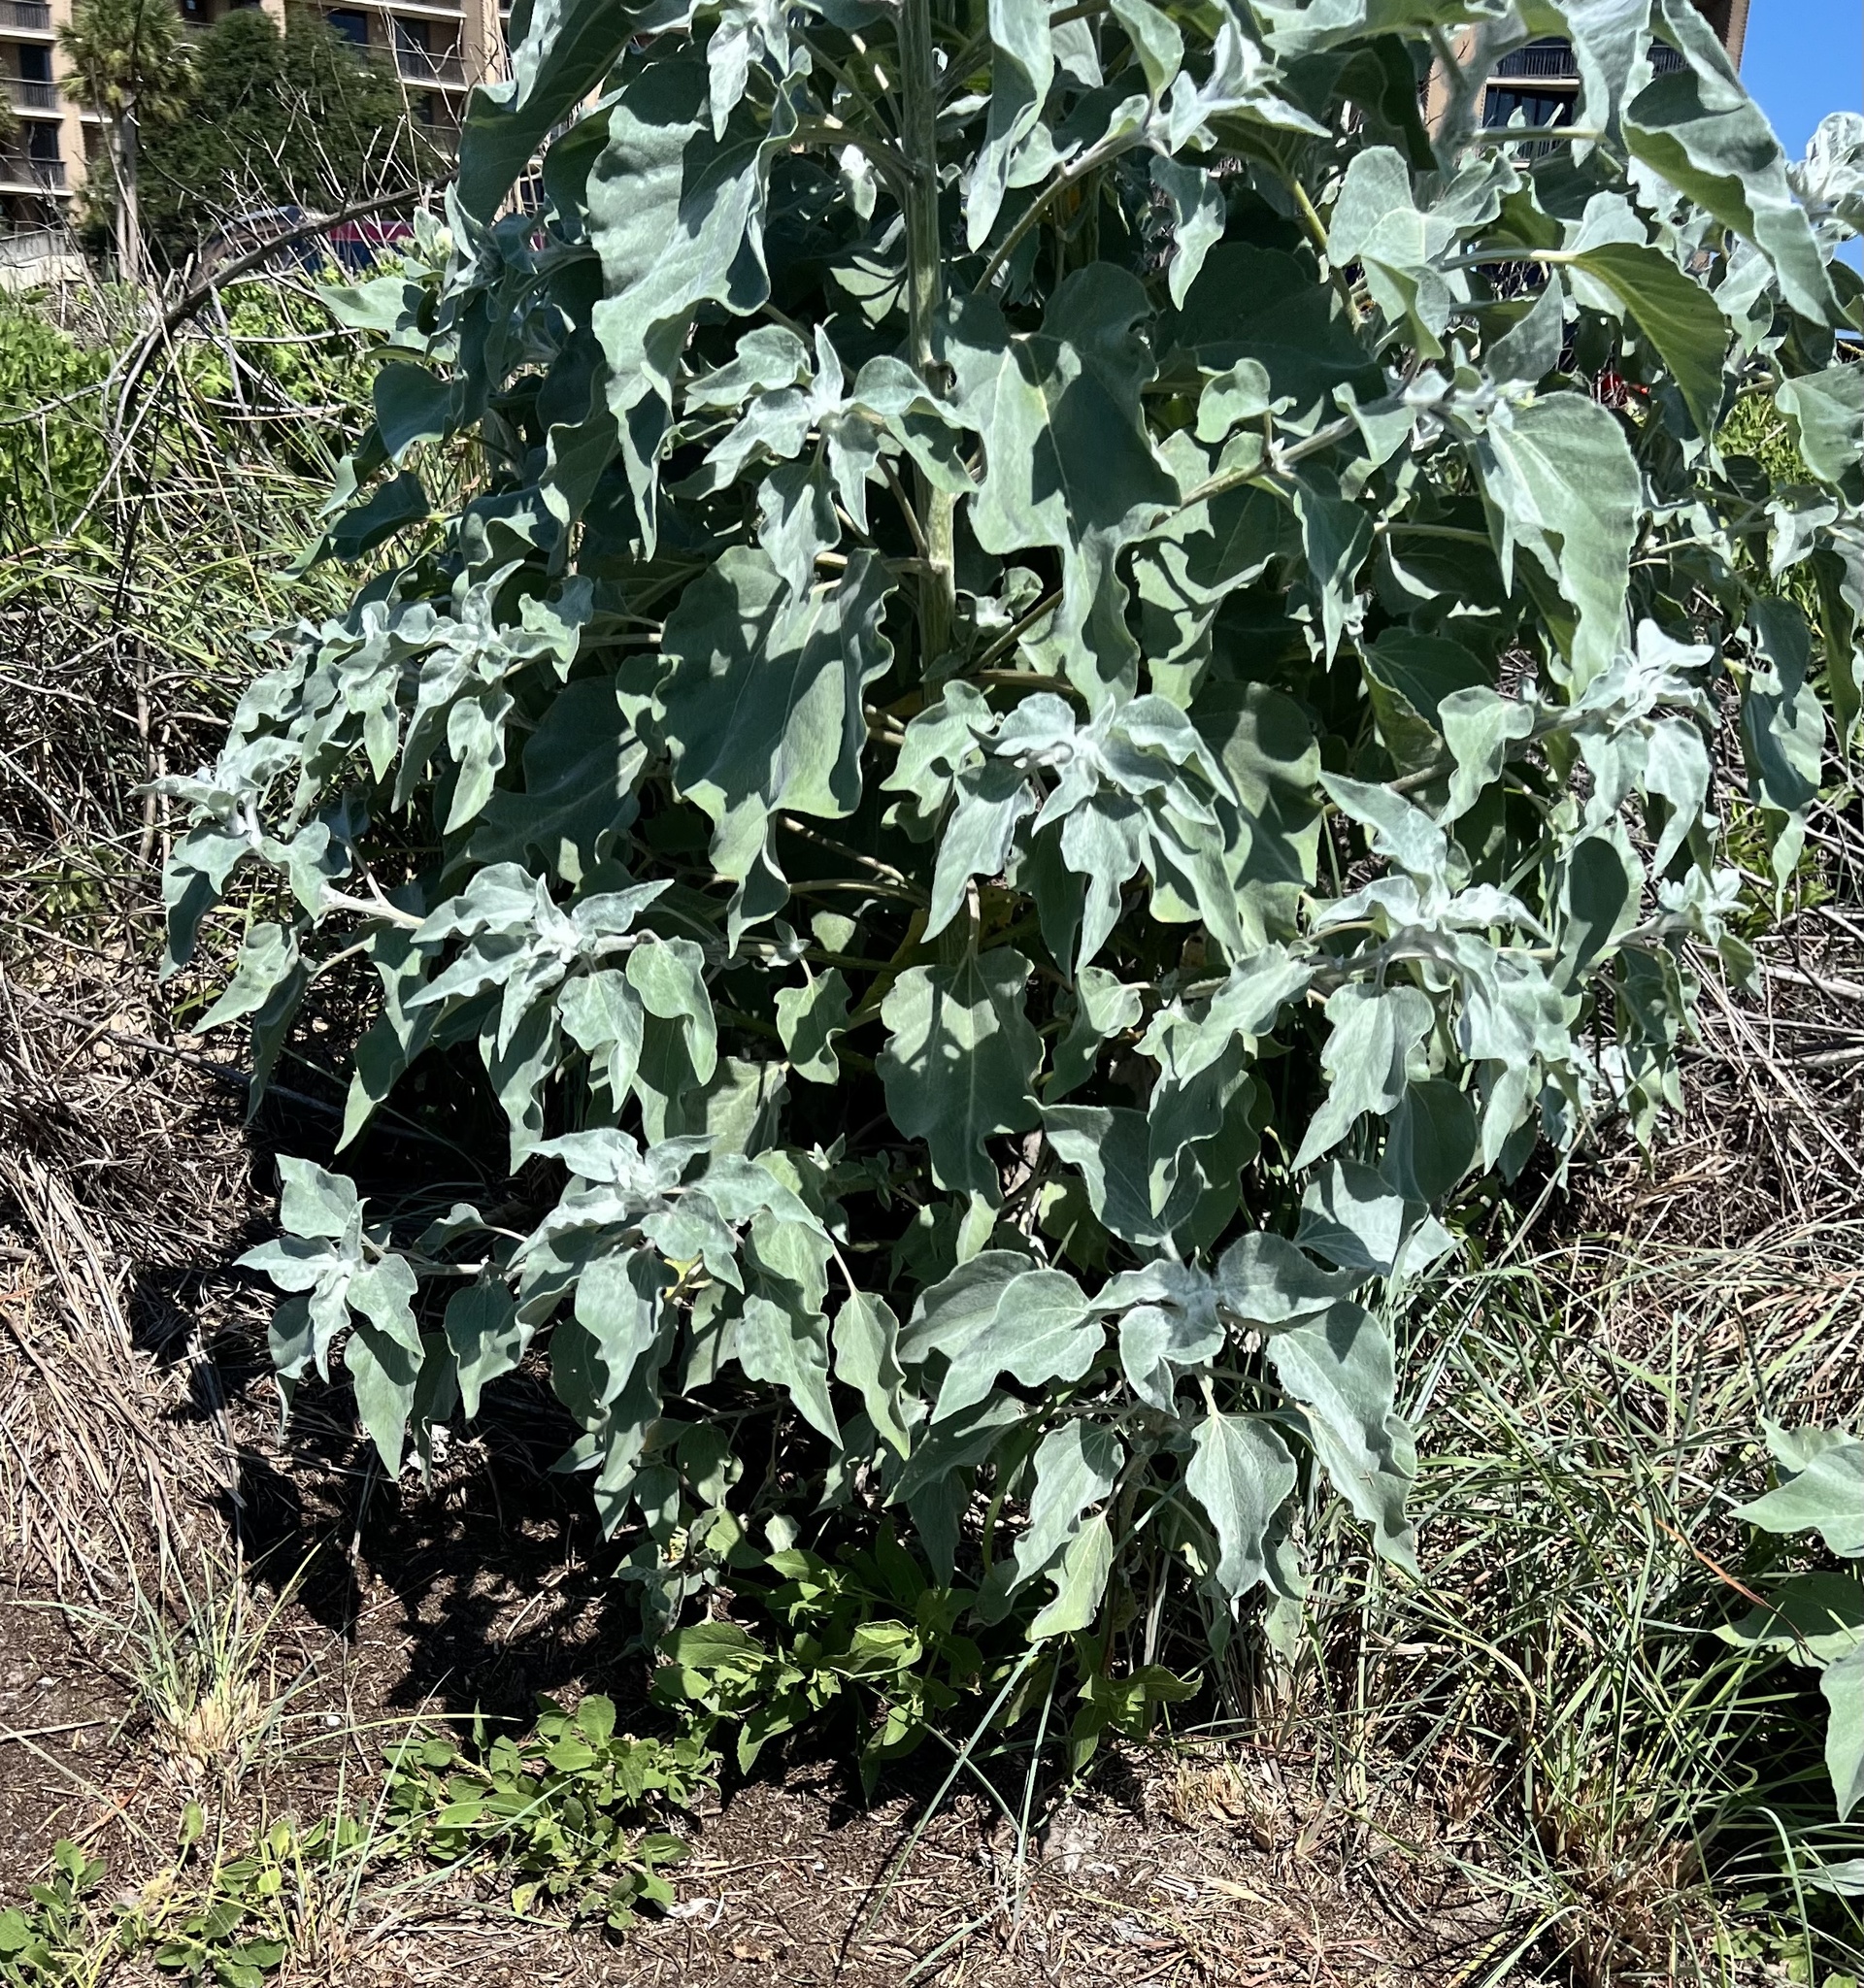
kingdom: Plantae
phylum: Tracheophyta
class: Magnoliopsida
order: Asterales
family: Asteraceae
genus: Helianthus
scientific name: Helianthus argophyllus
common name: Silverleaf sunflower
